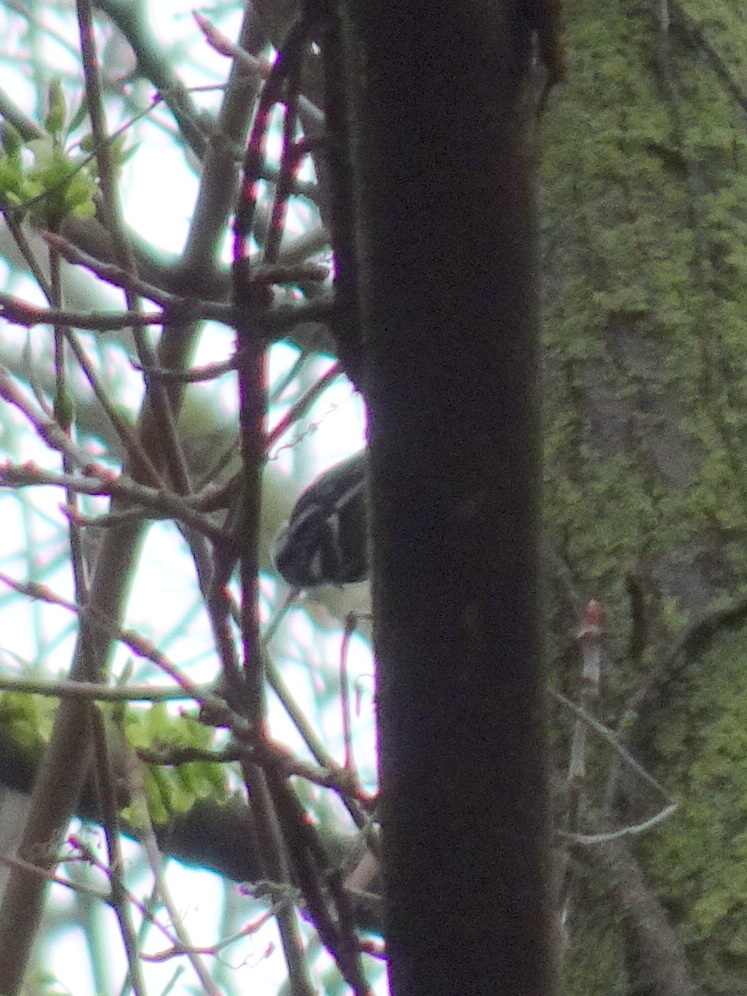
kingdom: Animalia
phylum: Chordata
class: Aves
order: Passeriformes
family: Parulidae
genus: Mniotilta
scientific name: Mniotilta varia
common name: Black-and-white warbler
